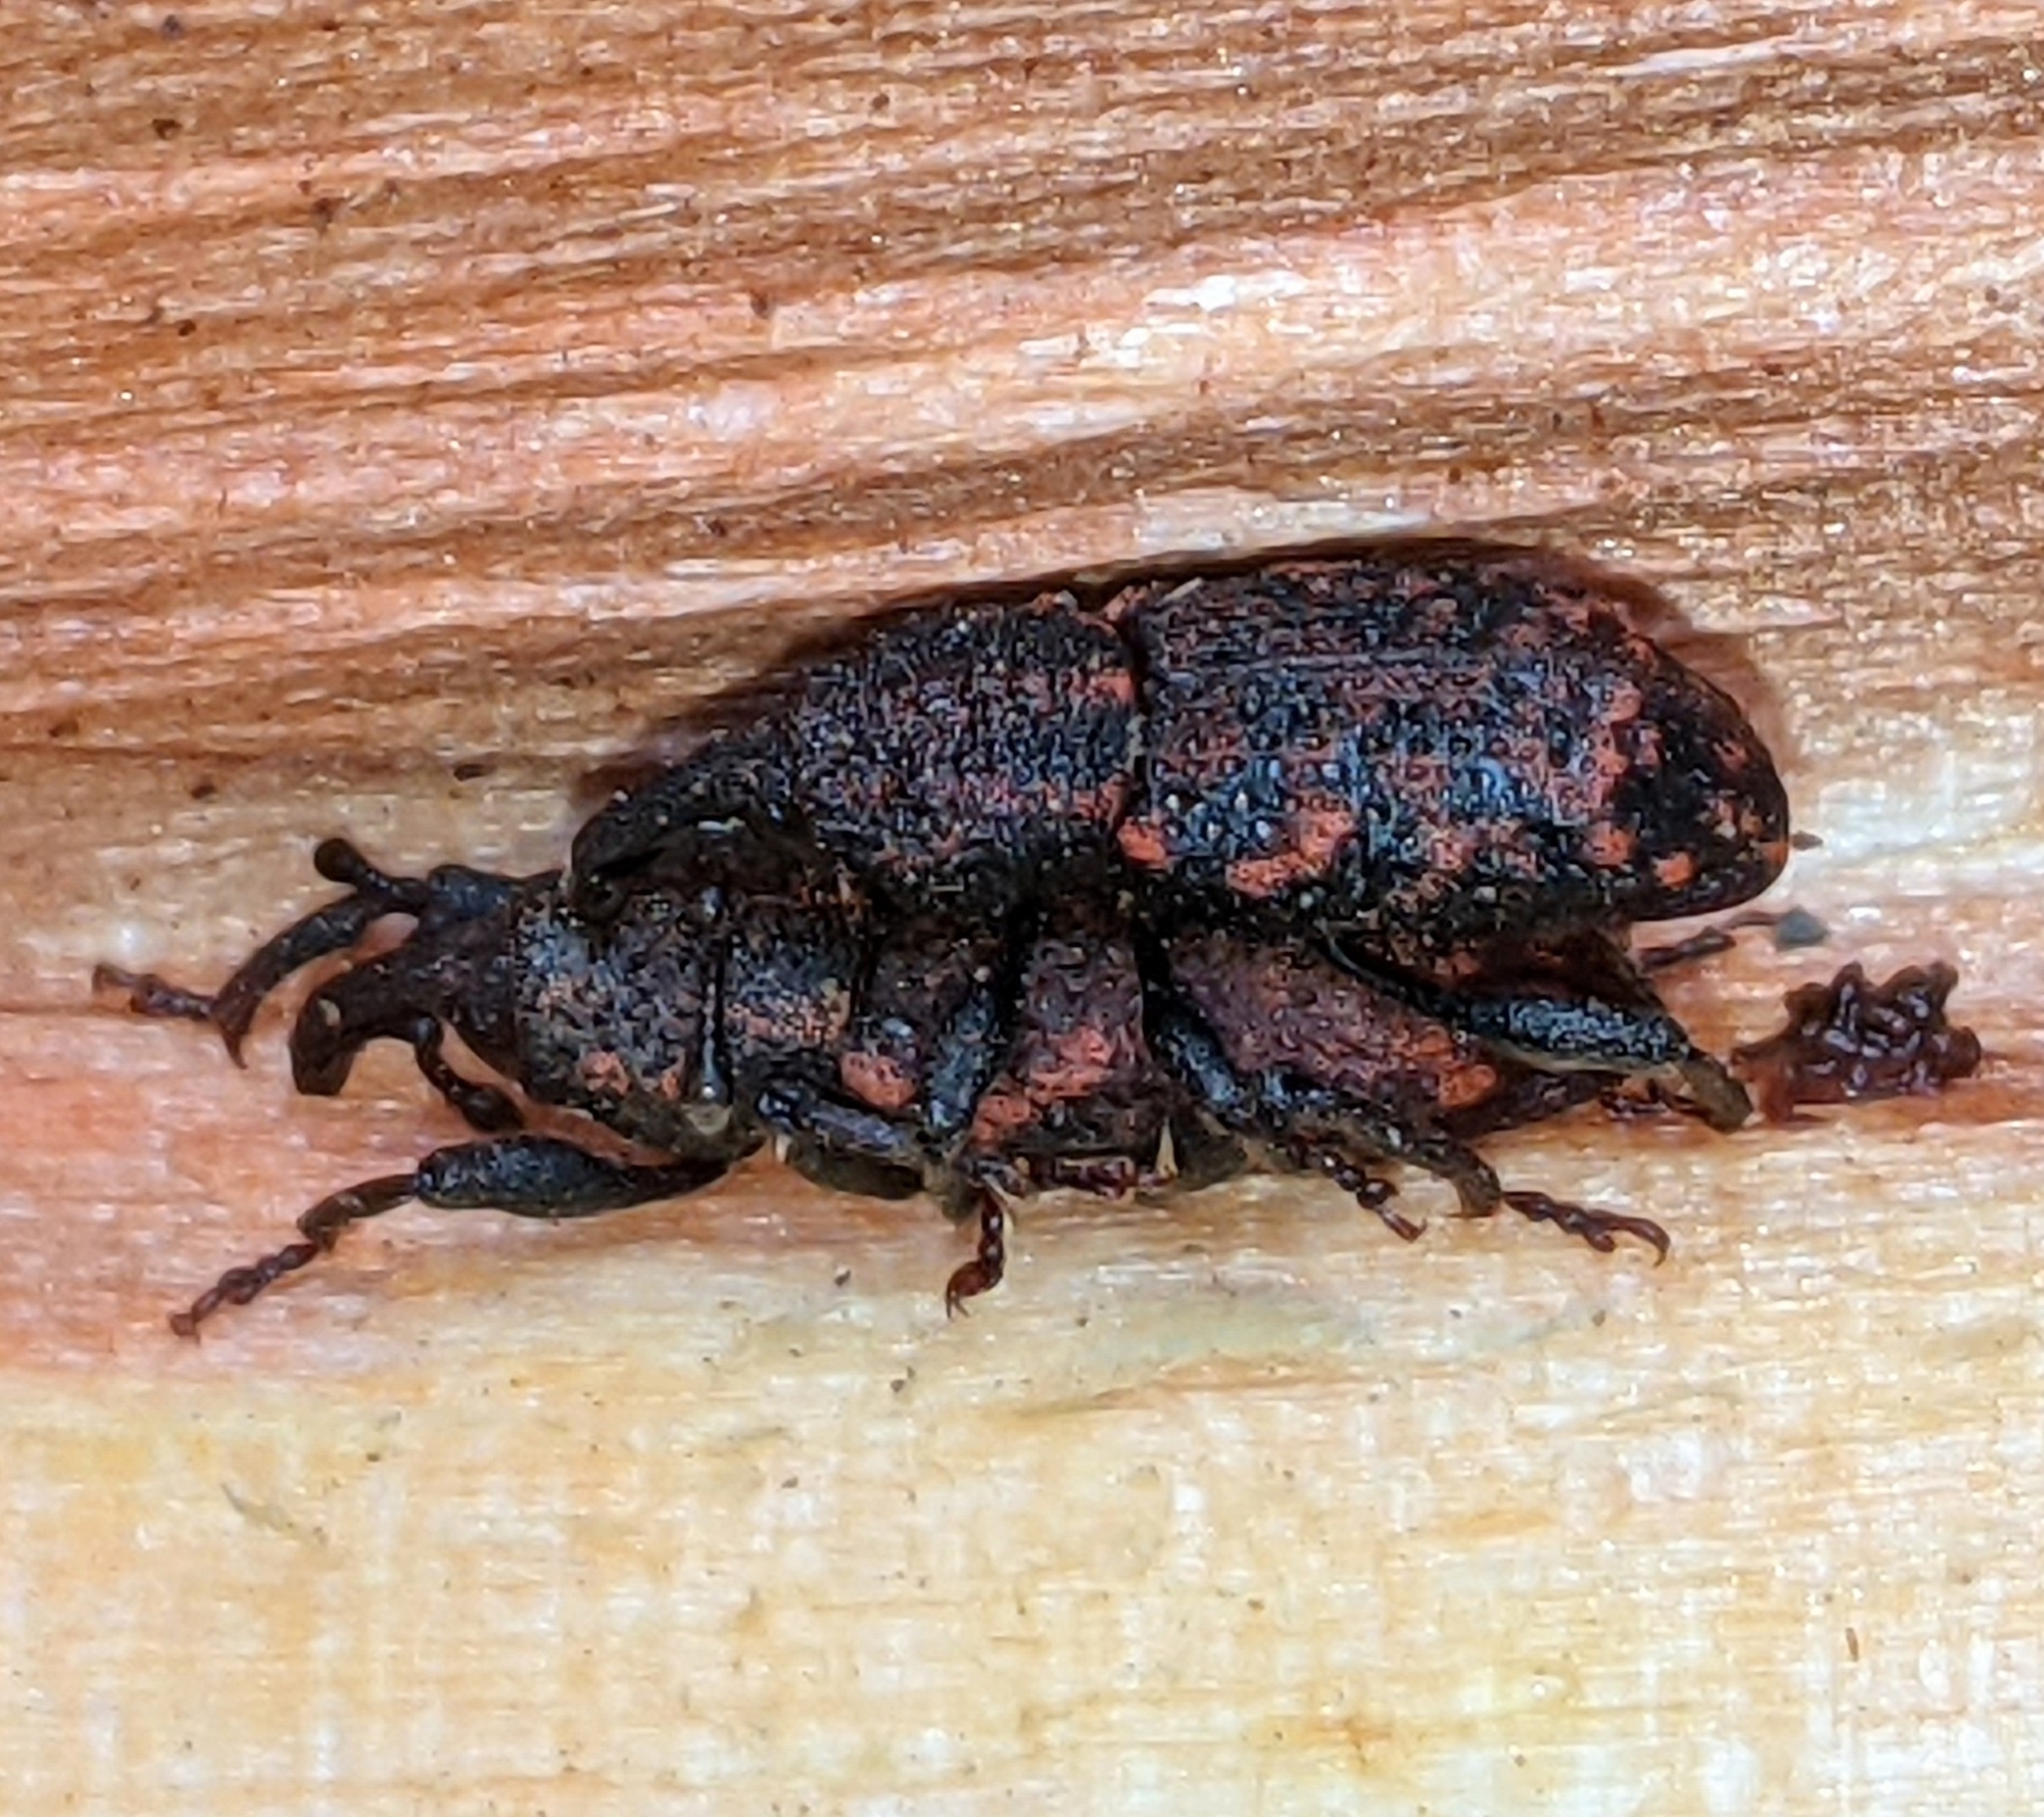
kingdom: Animalia
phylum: Arthropoda
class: Insecta
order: Coleoptera
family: Curculionidae
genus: Steremnius
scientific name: Steremnius carinatus
